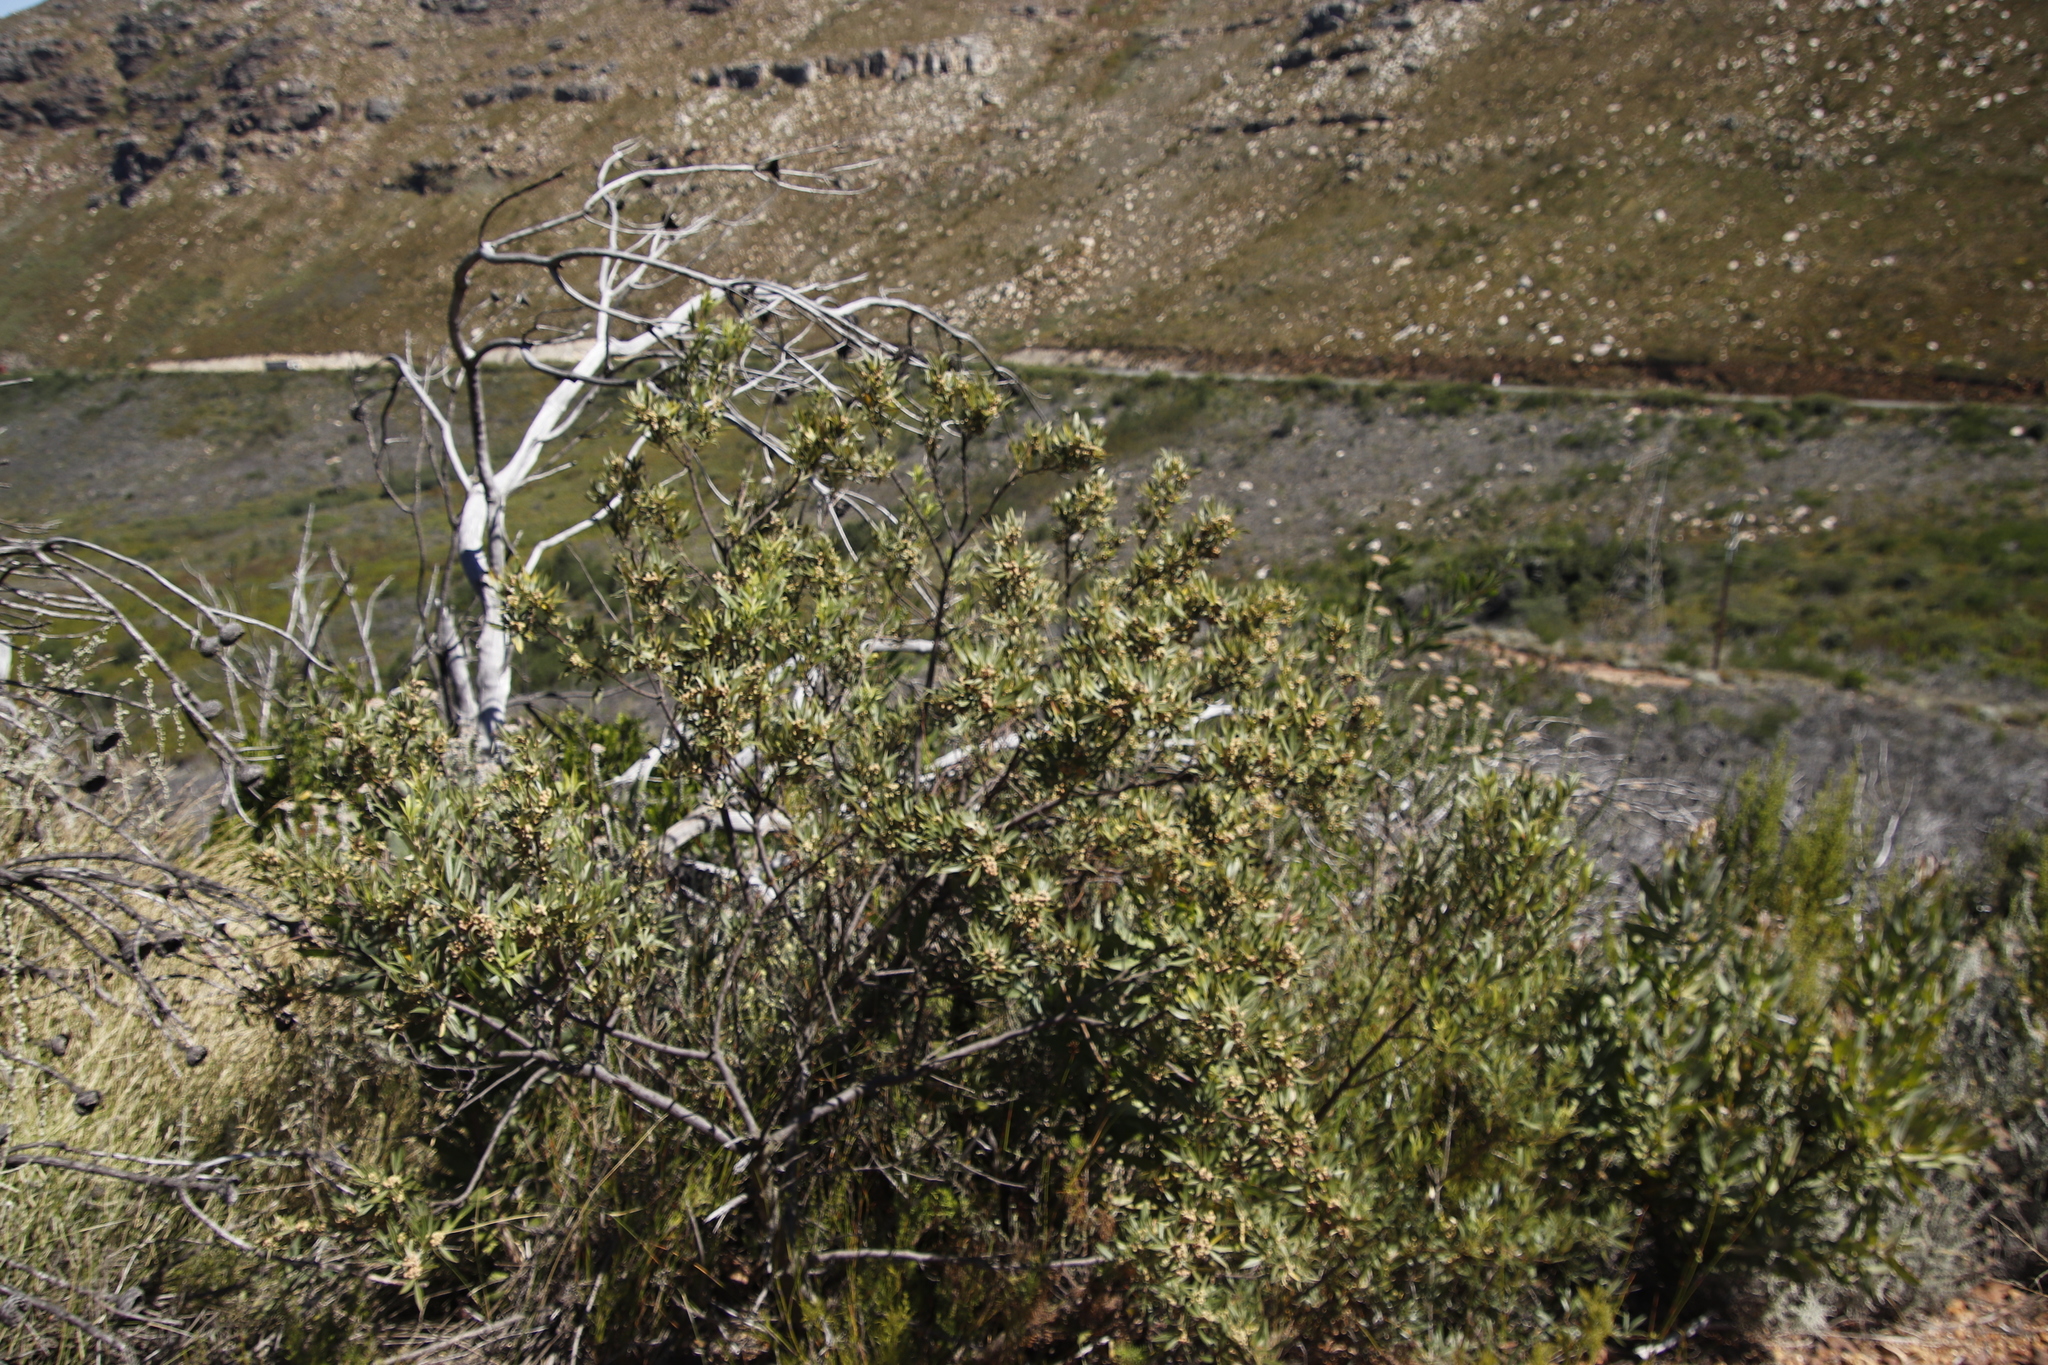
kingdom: Plantae
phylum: Tracheophyta
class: Magnoliopsida
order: Sapindales
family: Anacardiaceae
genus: Searsia
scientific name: Searsia angustifolia
